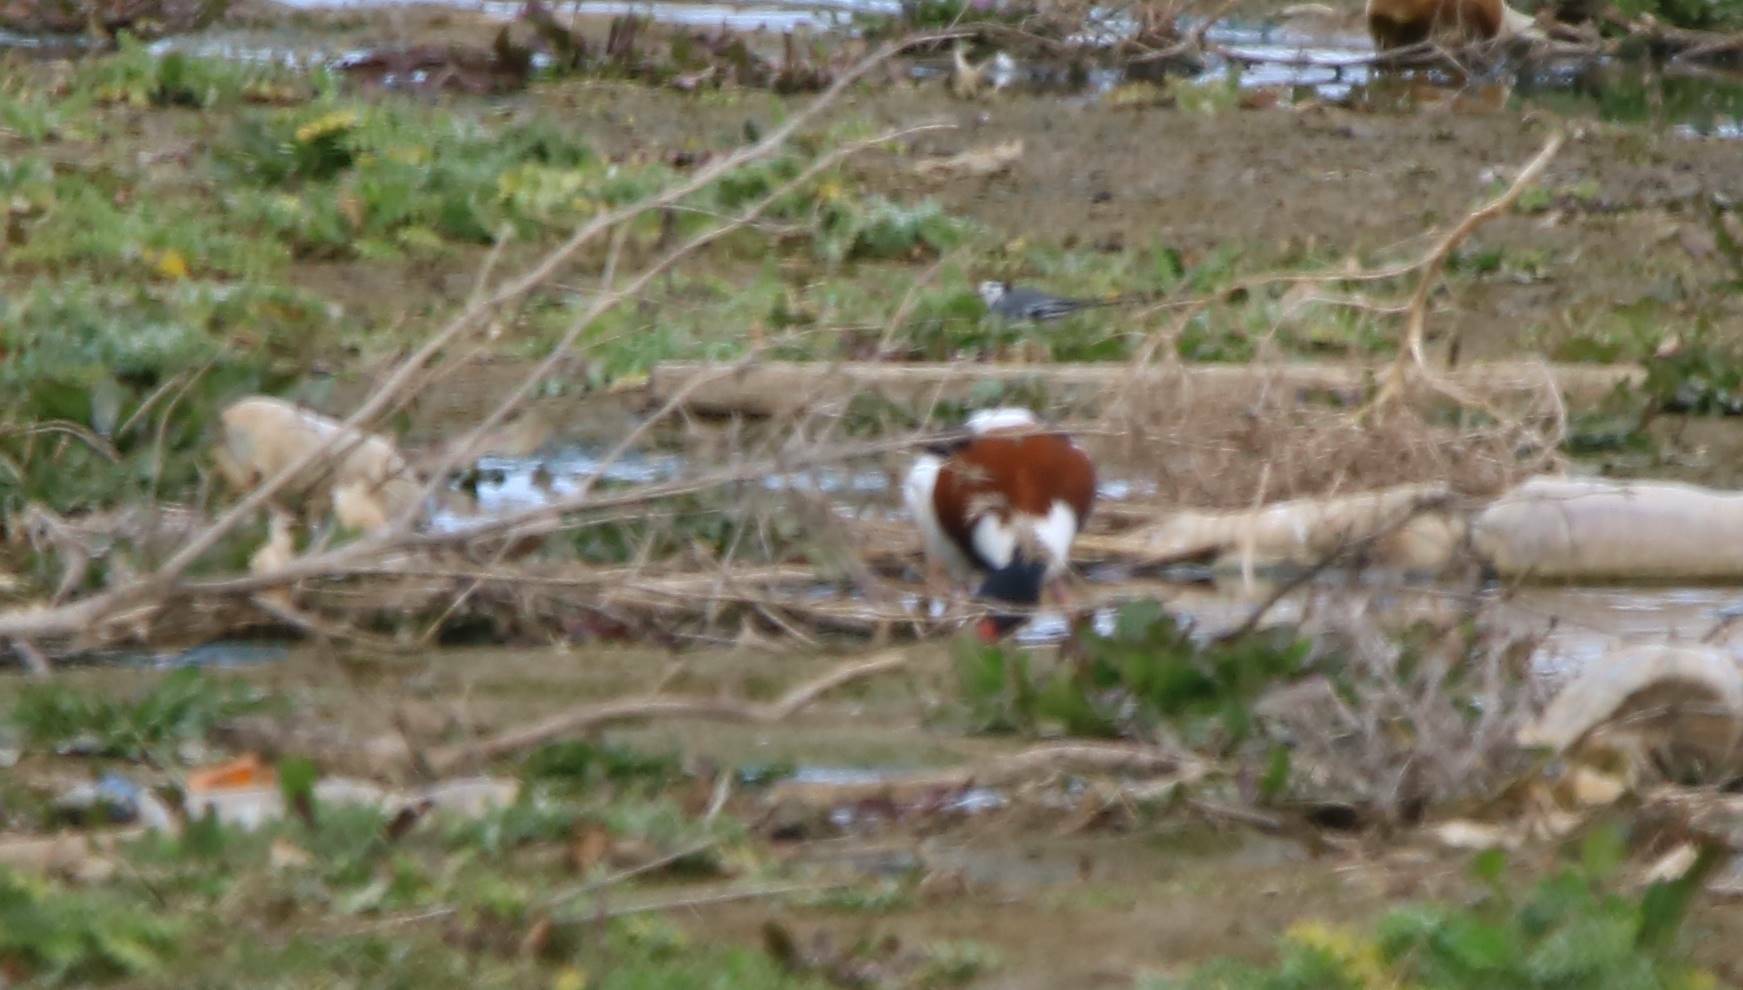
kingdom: Animalia
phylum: Chordata
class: Aves
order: Anseriformes
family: Anatidae
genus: Tadorna
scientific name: Tadorna tadorna
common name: Common shelduck
